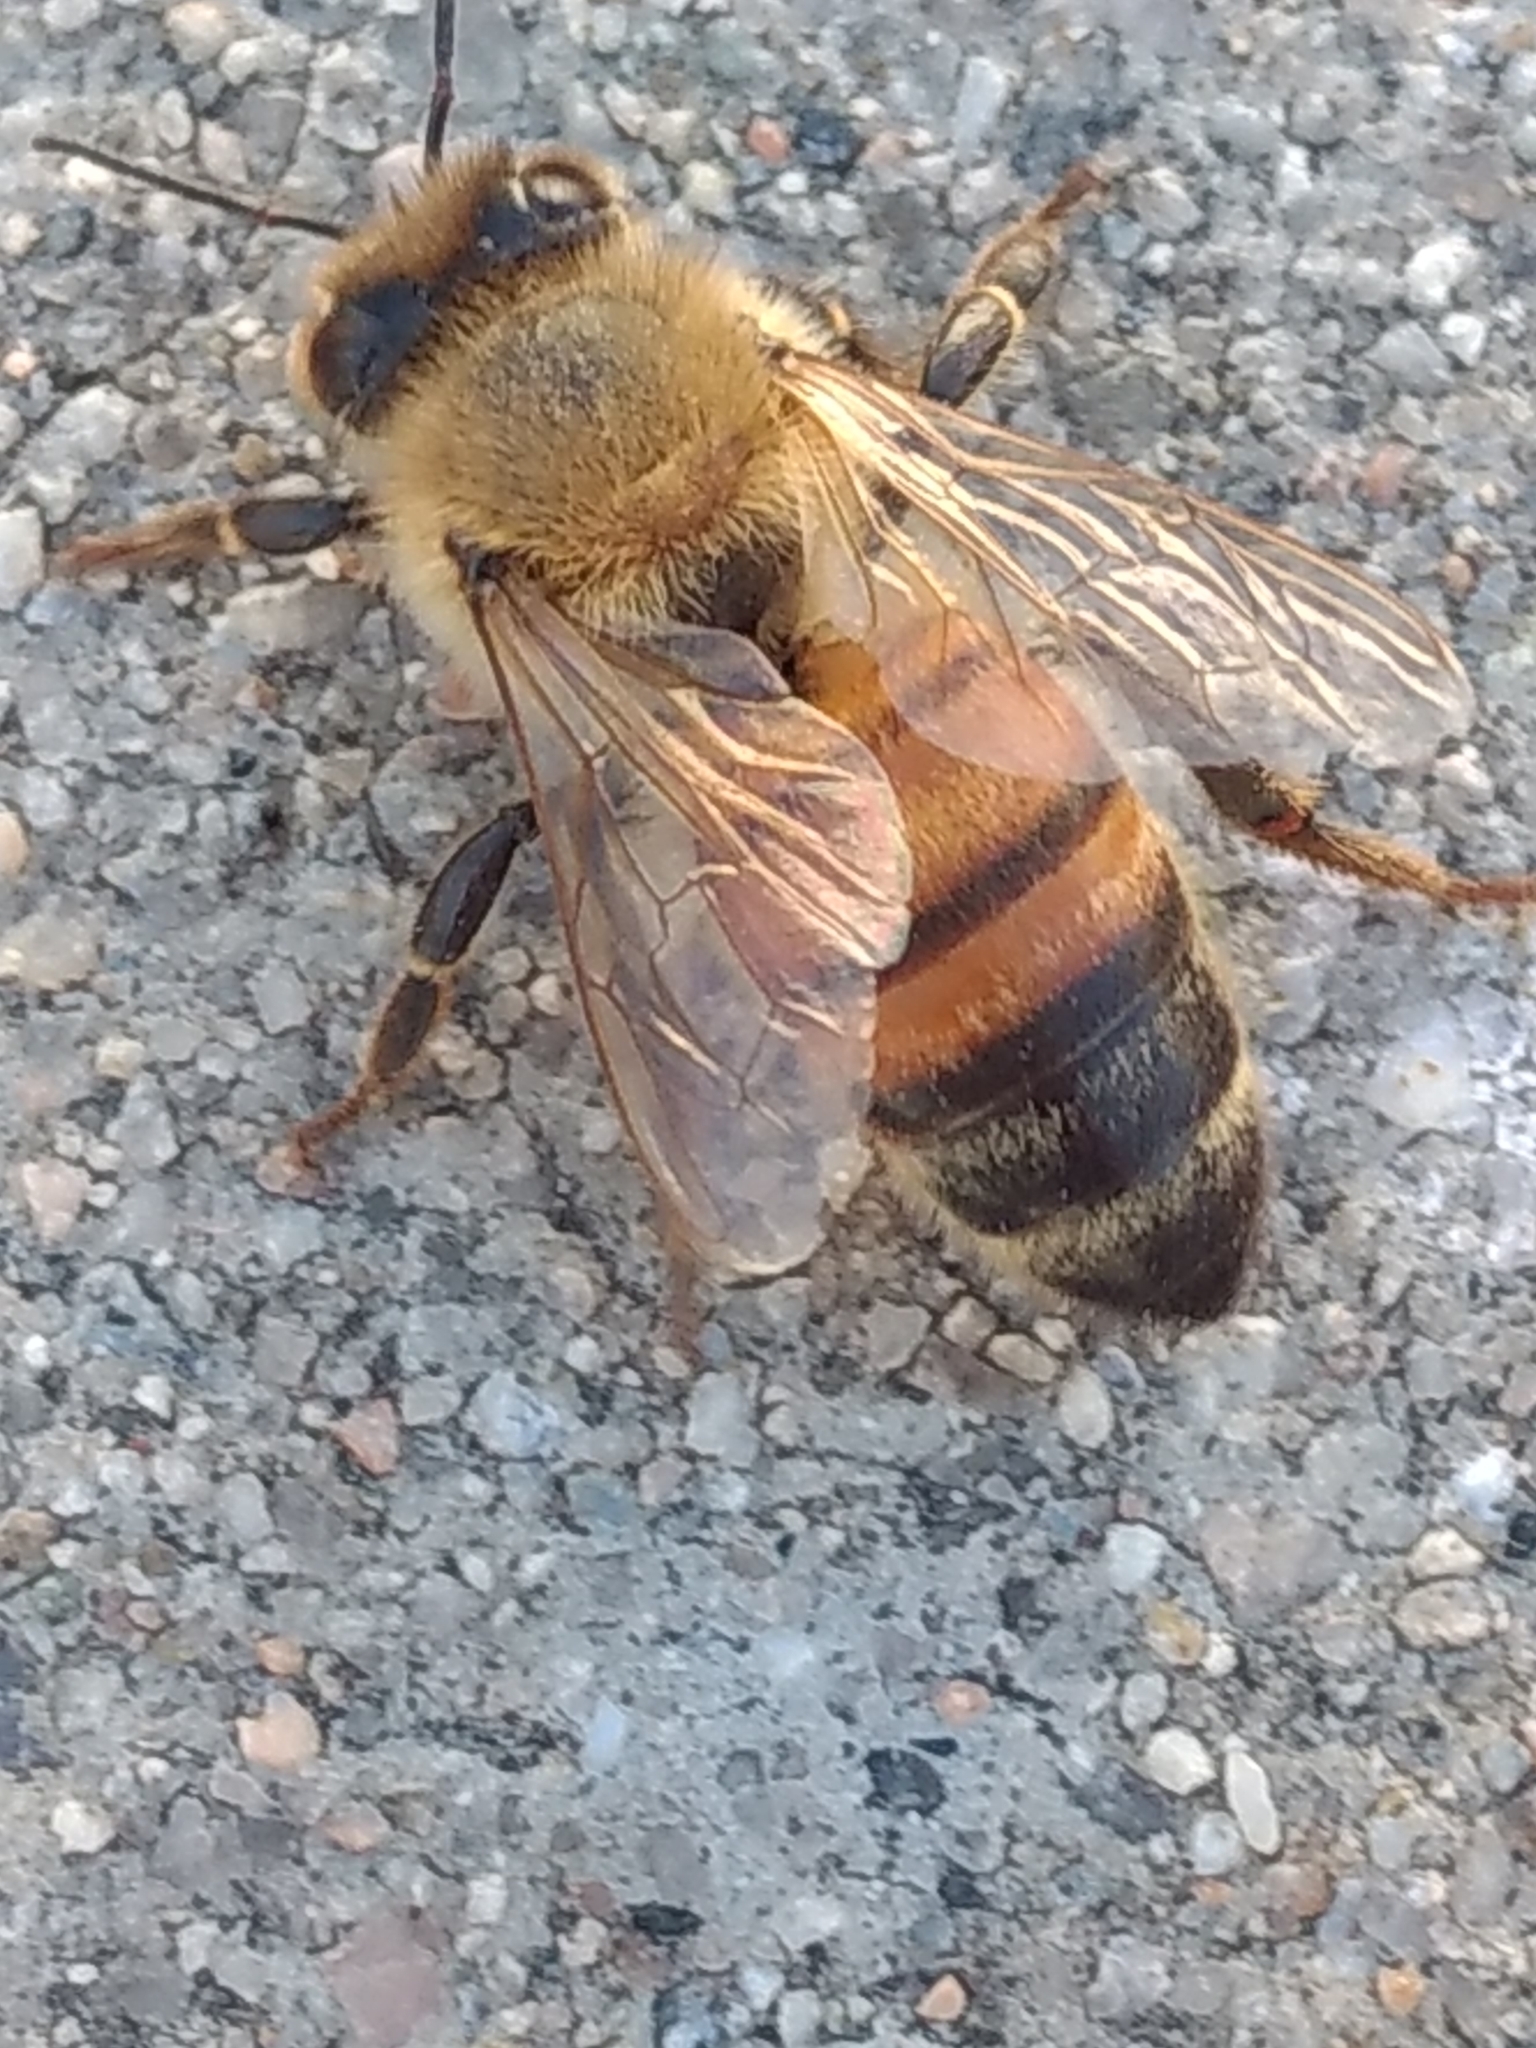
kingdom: Animalia
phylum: Arthropoda
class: Insecta
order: Hymenoptera
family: Apidae
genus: Apis
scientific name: Apis mellifera
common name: Honey bee
